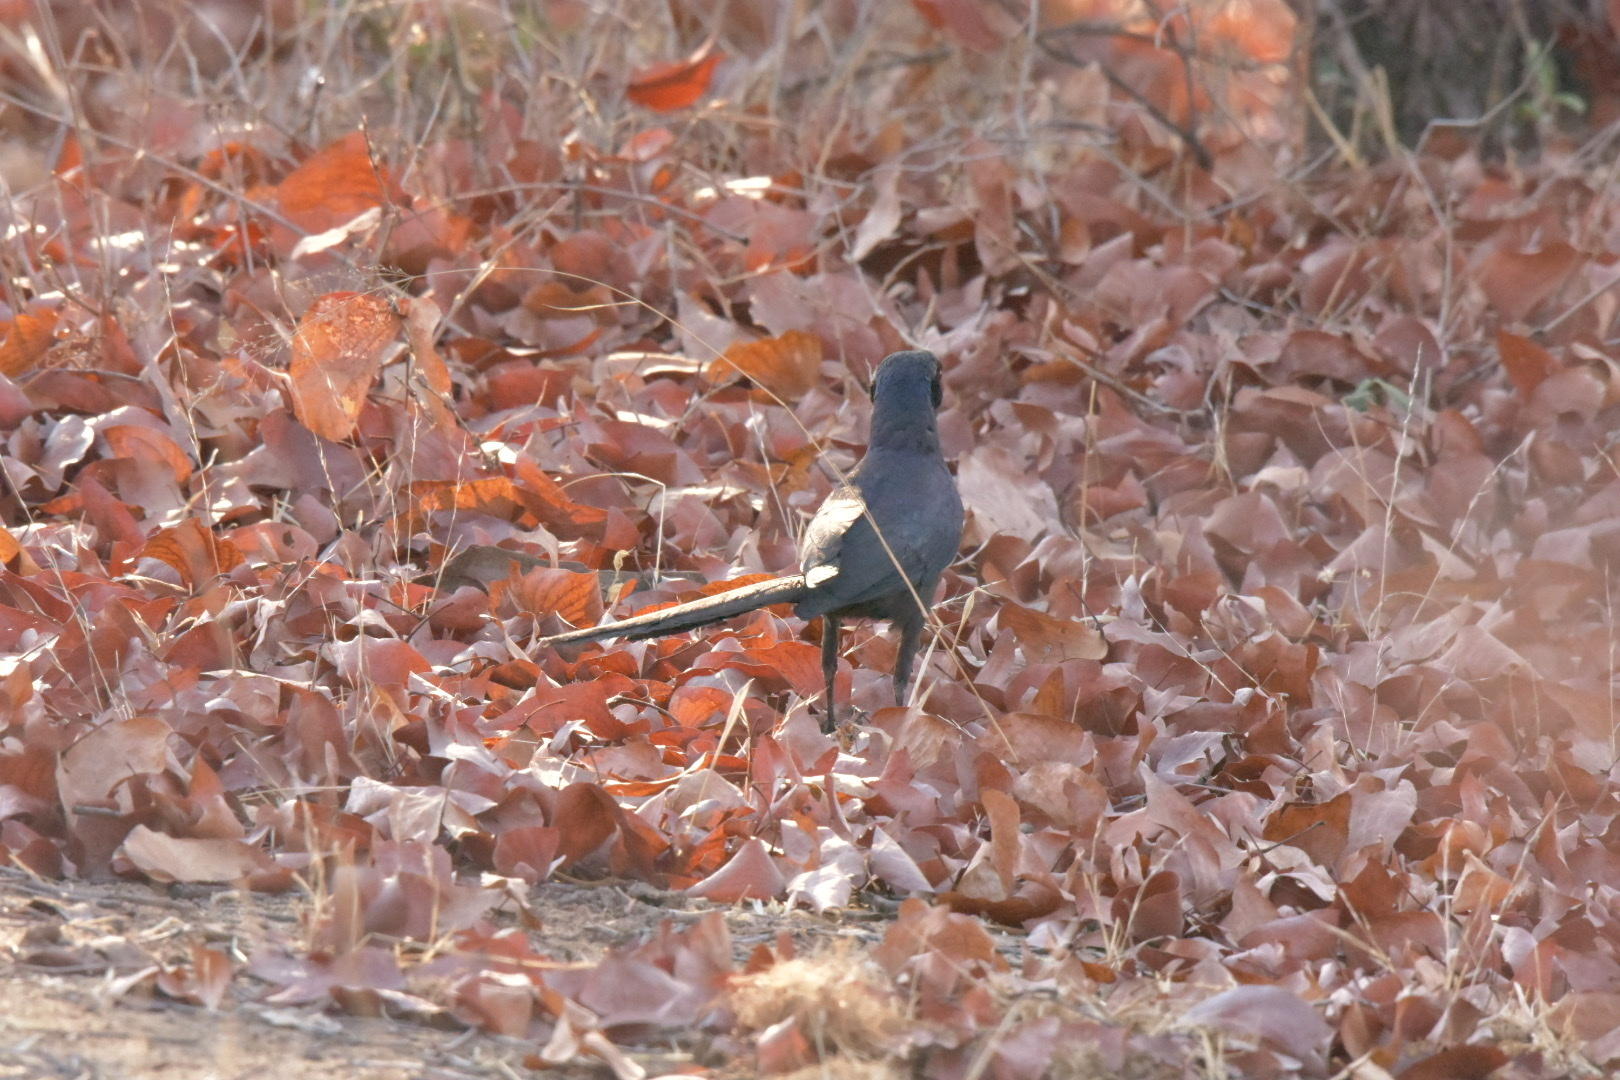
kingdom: Animalia
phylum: Chordata
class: Aves
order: Passeriformes
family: Sturnidae
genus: Lamprotornis
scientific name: Lamprotornis mevesii
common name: Meves's starling
